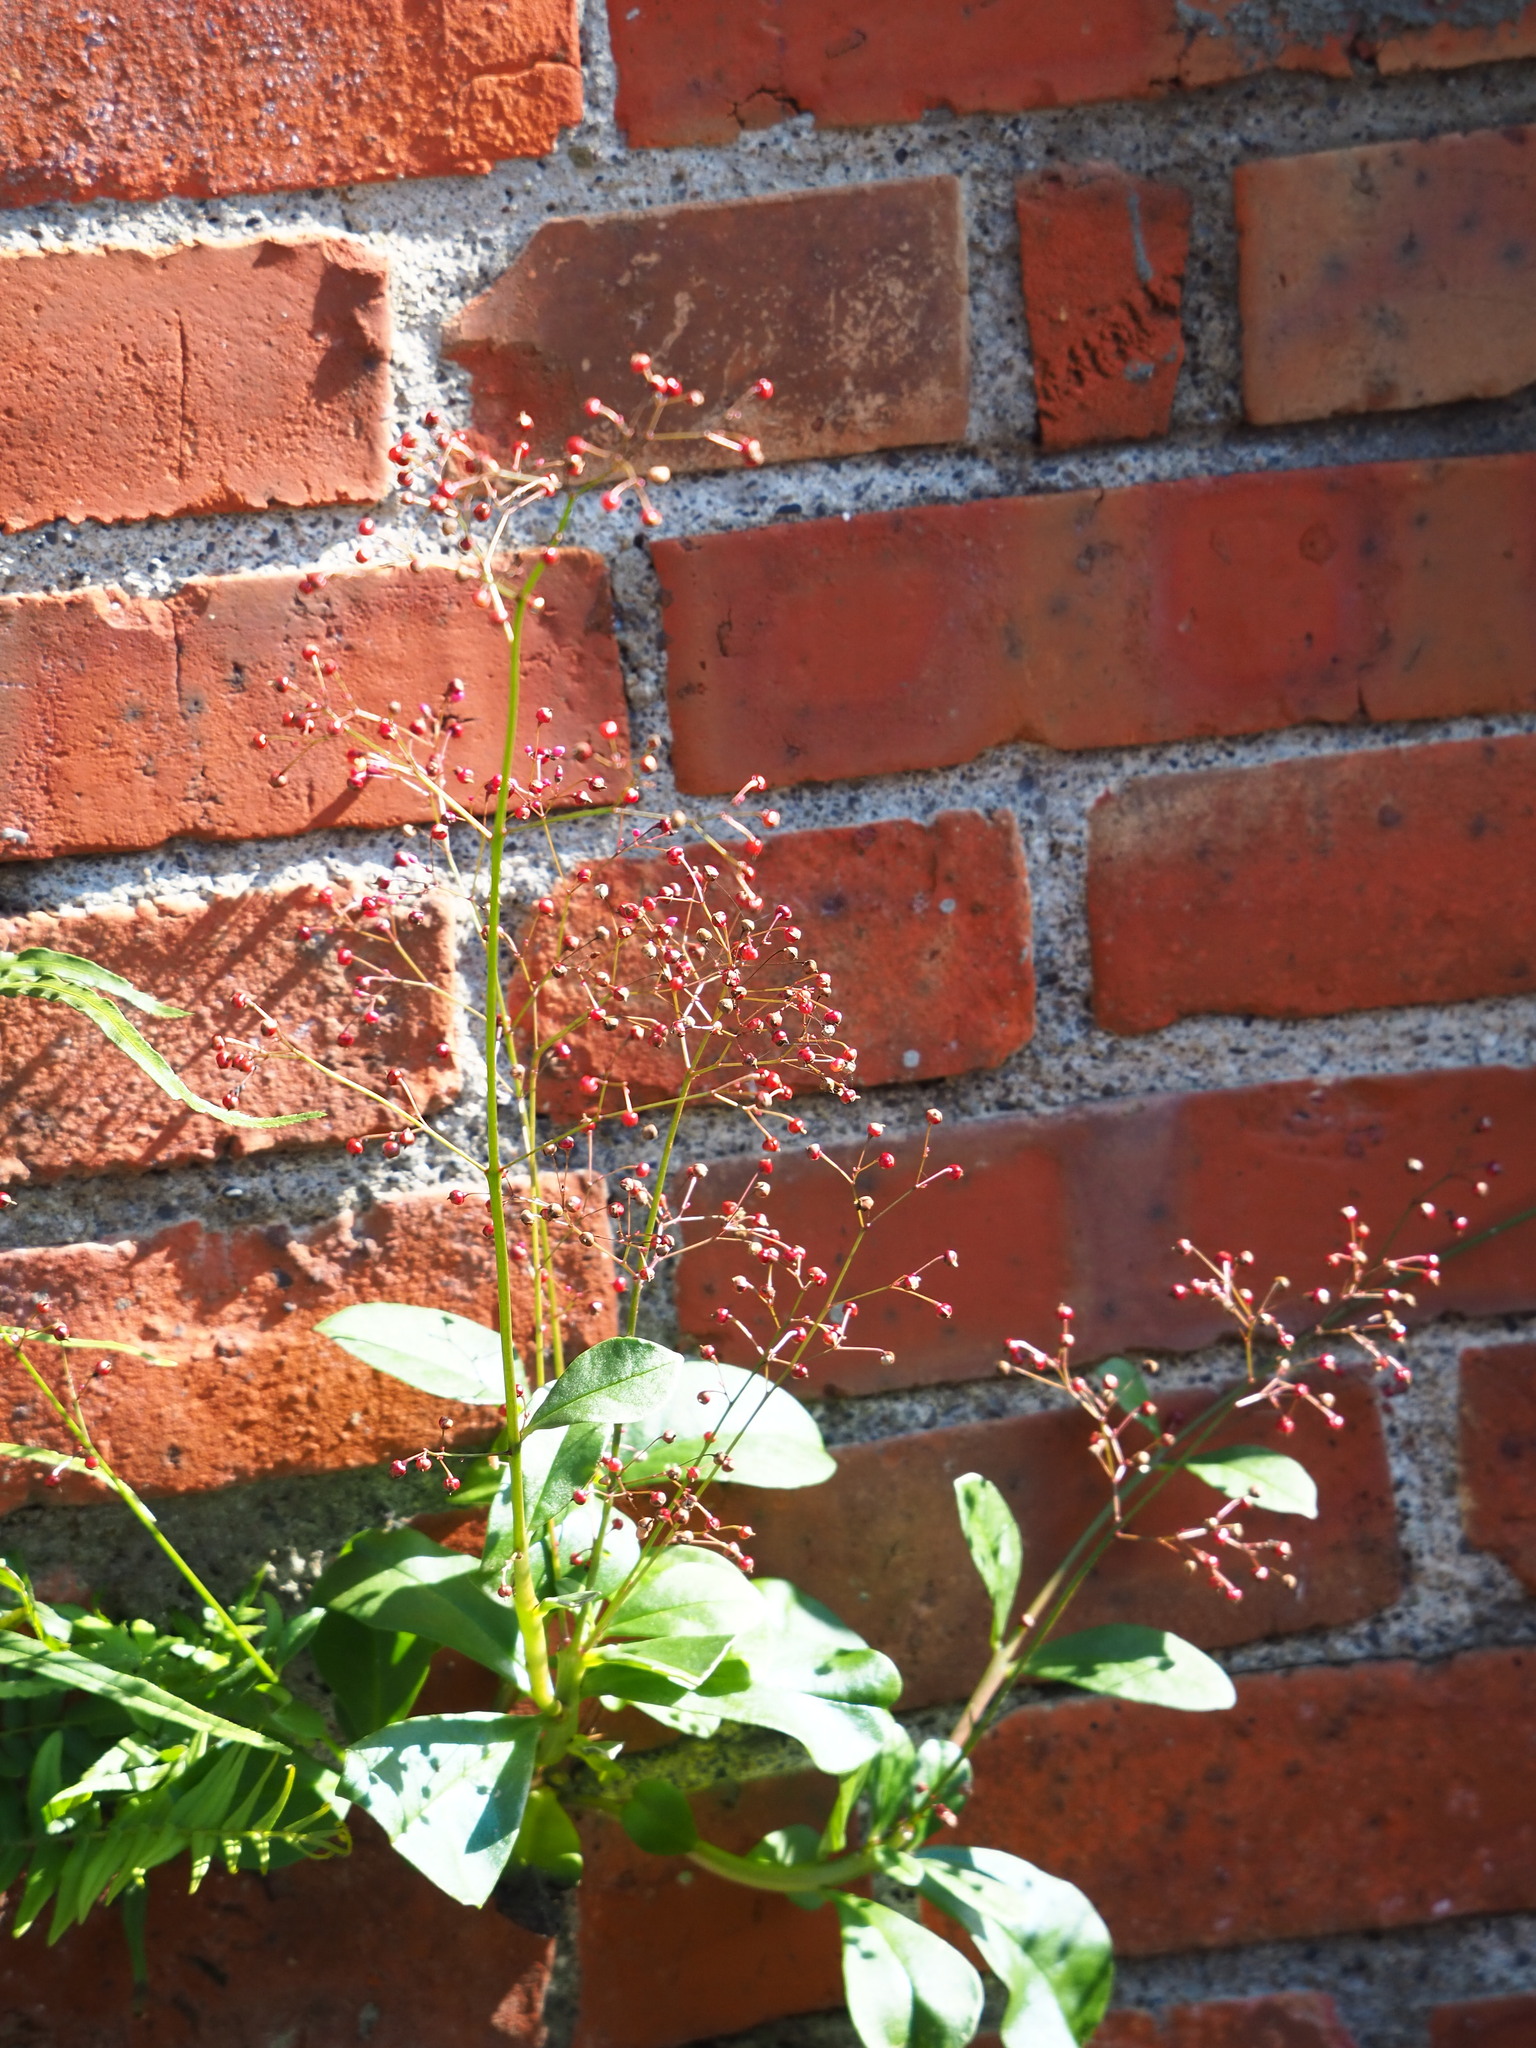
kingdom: Plantae
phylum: Tracheophyta
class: Magnoliopsida
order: Caryophyllales
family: Talinaceae
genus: Talinum
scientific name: Talinum paniculatum
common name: Jewels of opar
